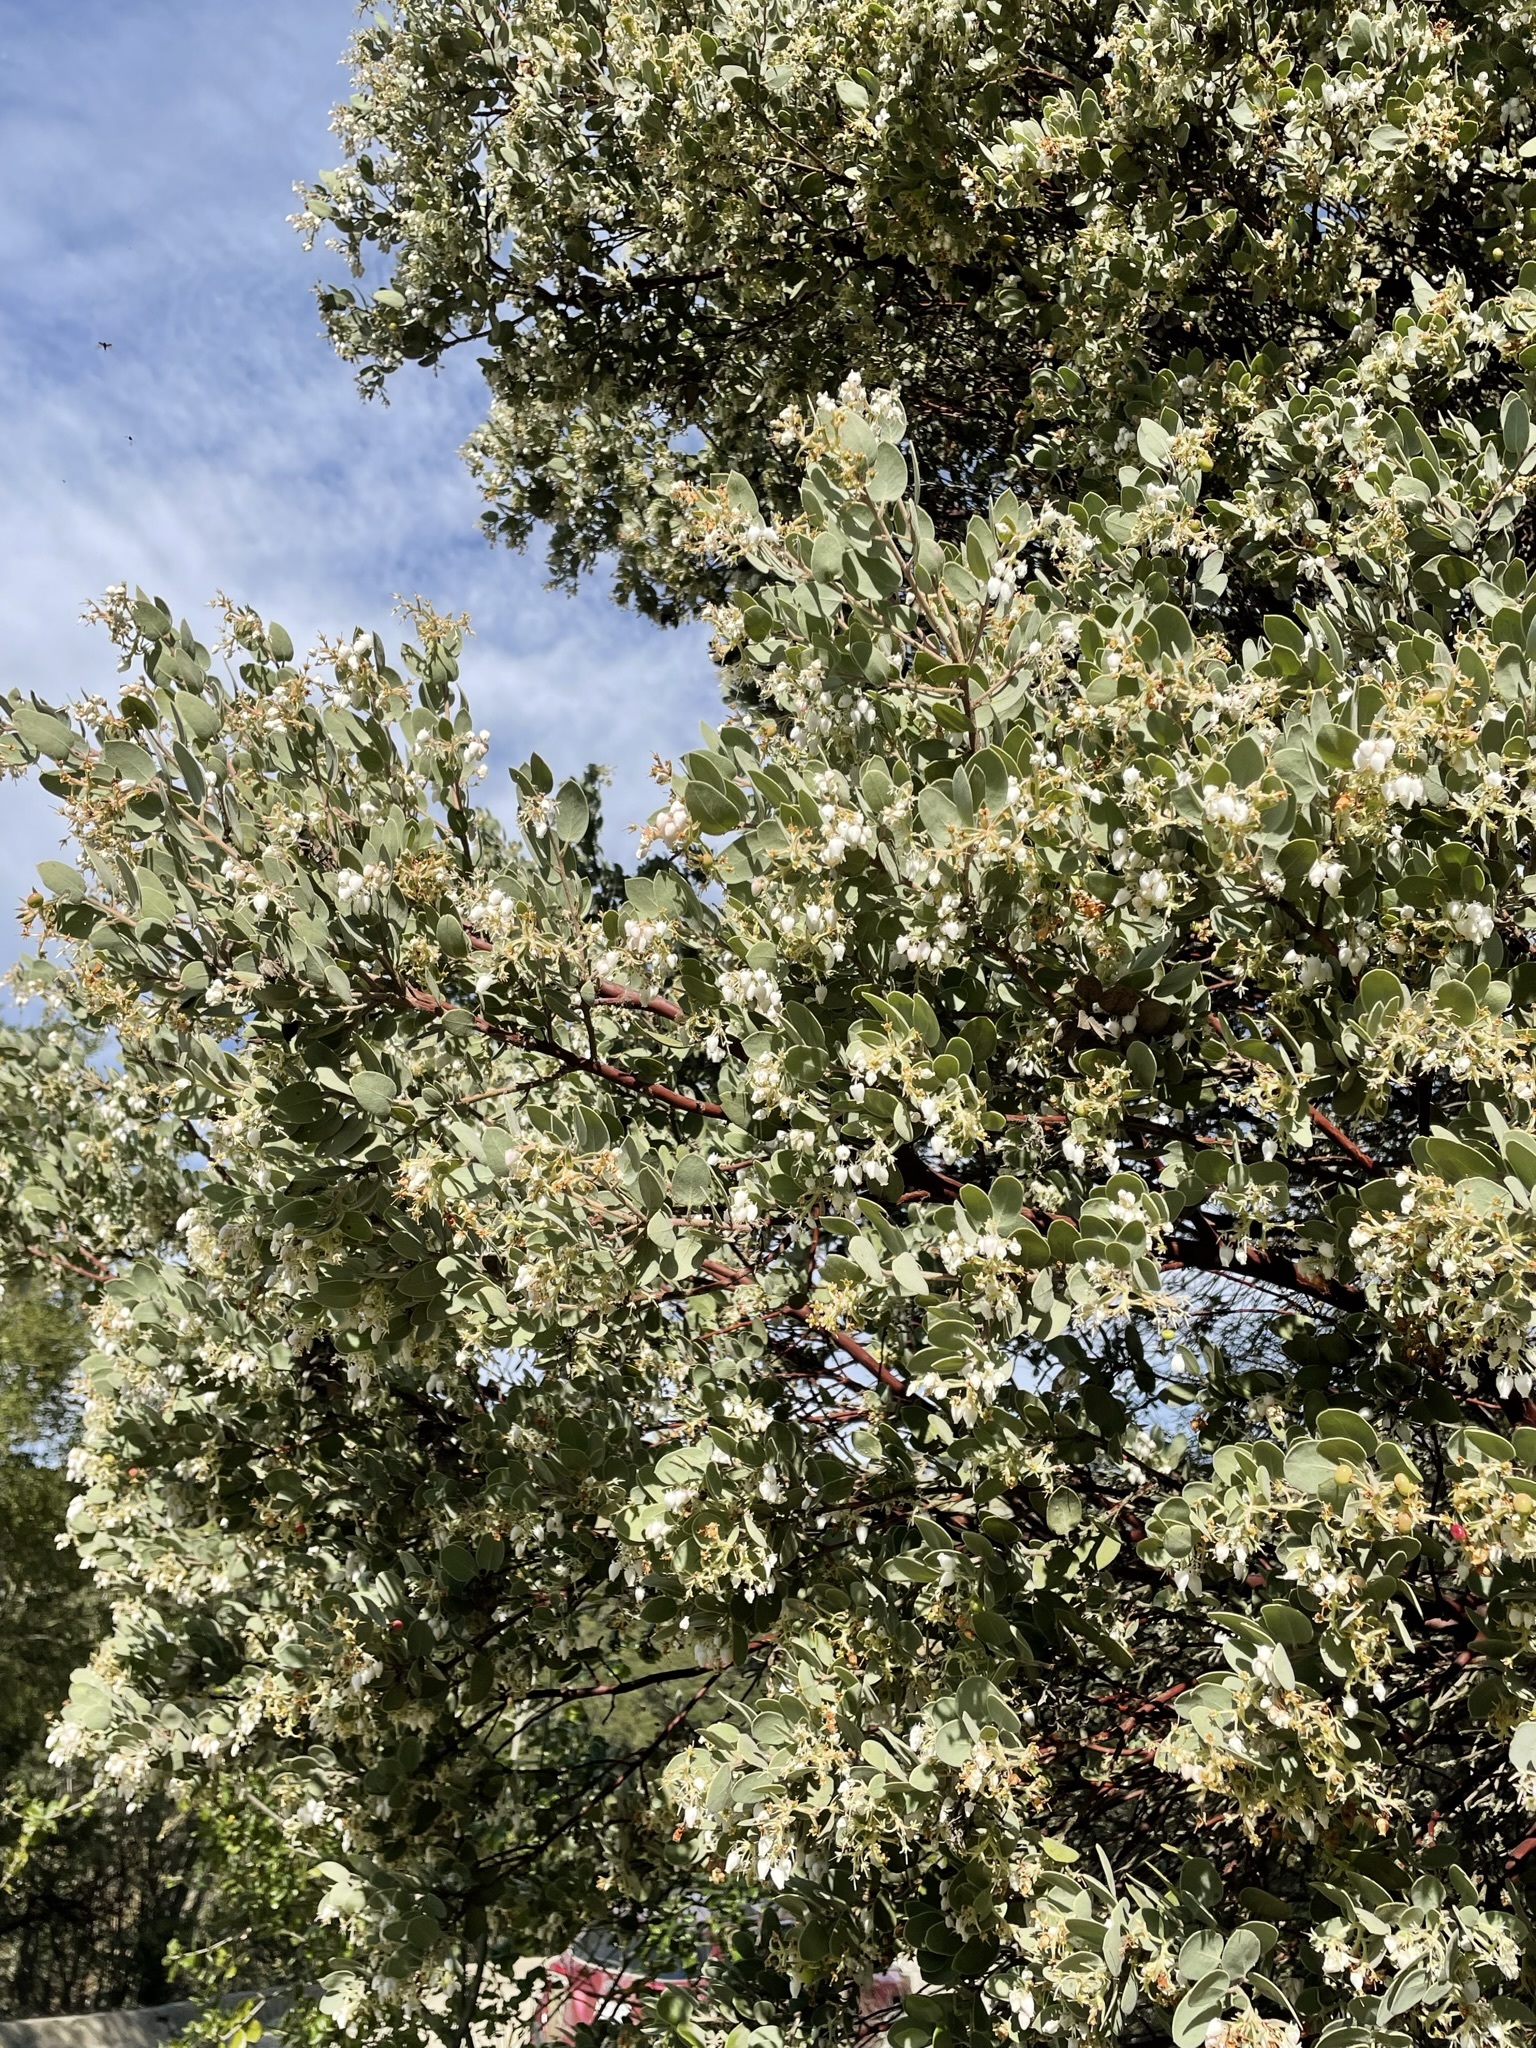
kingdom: Plantae
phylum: Tracheophyta
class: Magnoliopsida
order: Ericales
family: Ericaceae
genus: Arctostaphylos
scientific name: Arctostaphylos obispoensis
